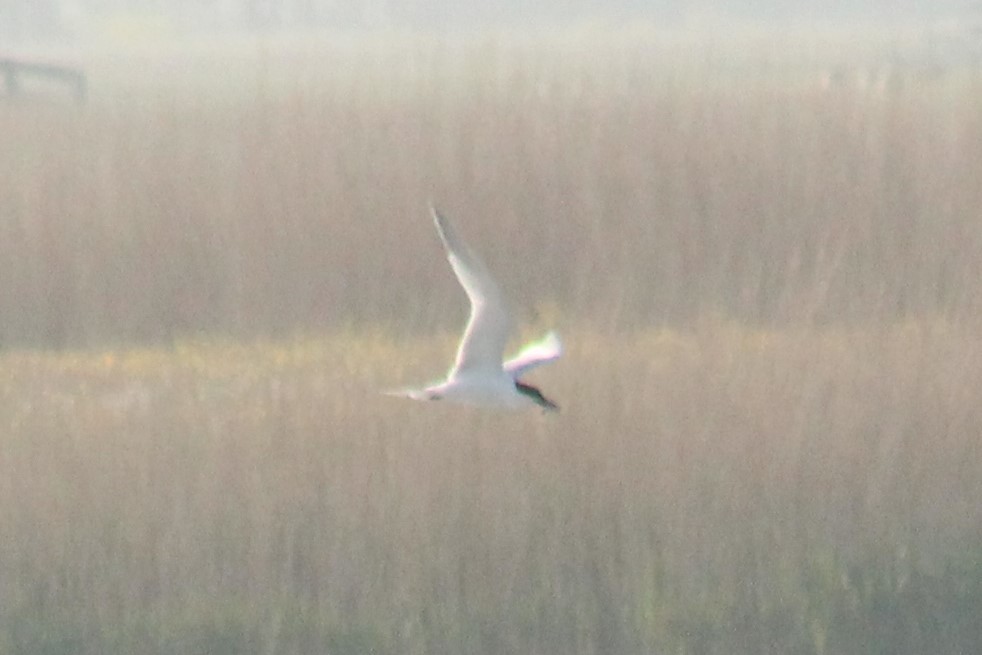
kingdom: Animalia
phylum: Chordata
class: Aves
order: Charadriiformes
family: Laridae
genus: Thalasseus
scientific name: Thalasseus sandvicensis
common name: Sandwich tern
